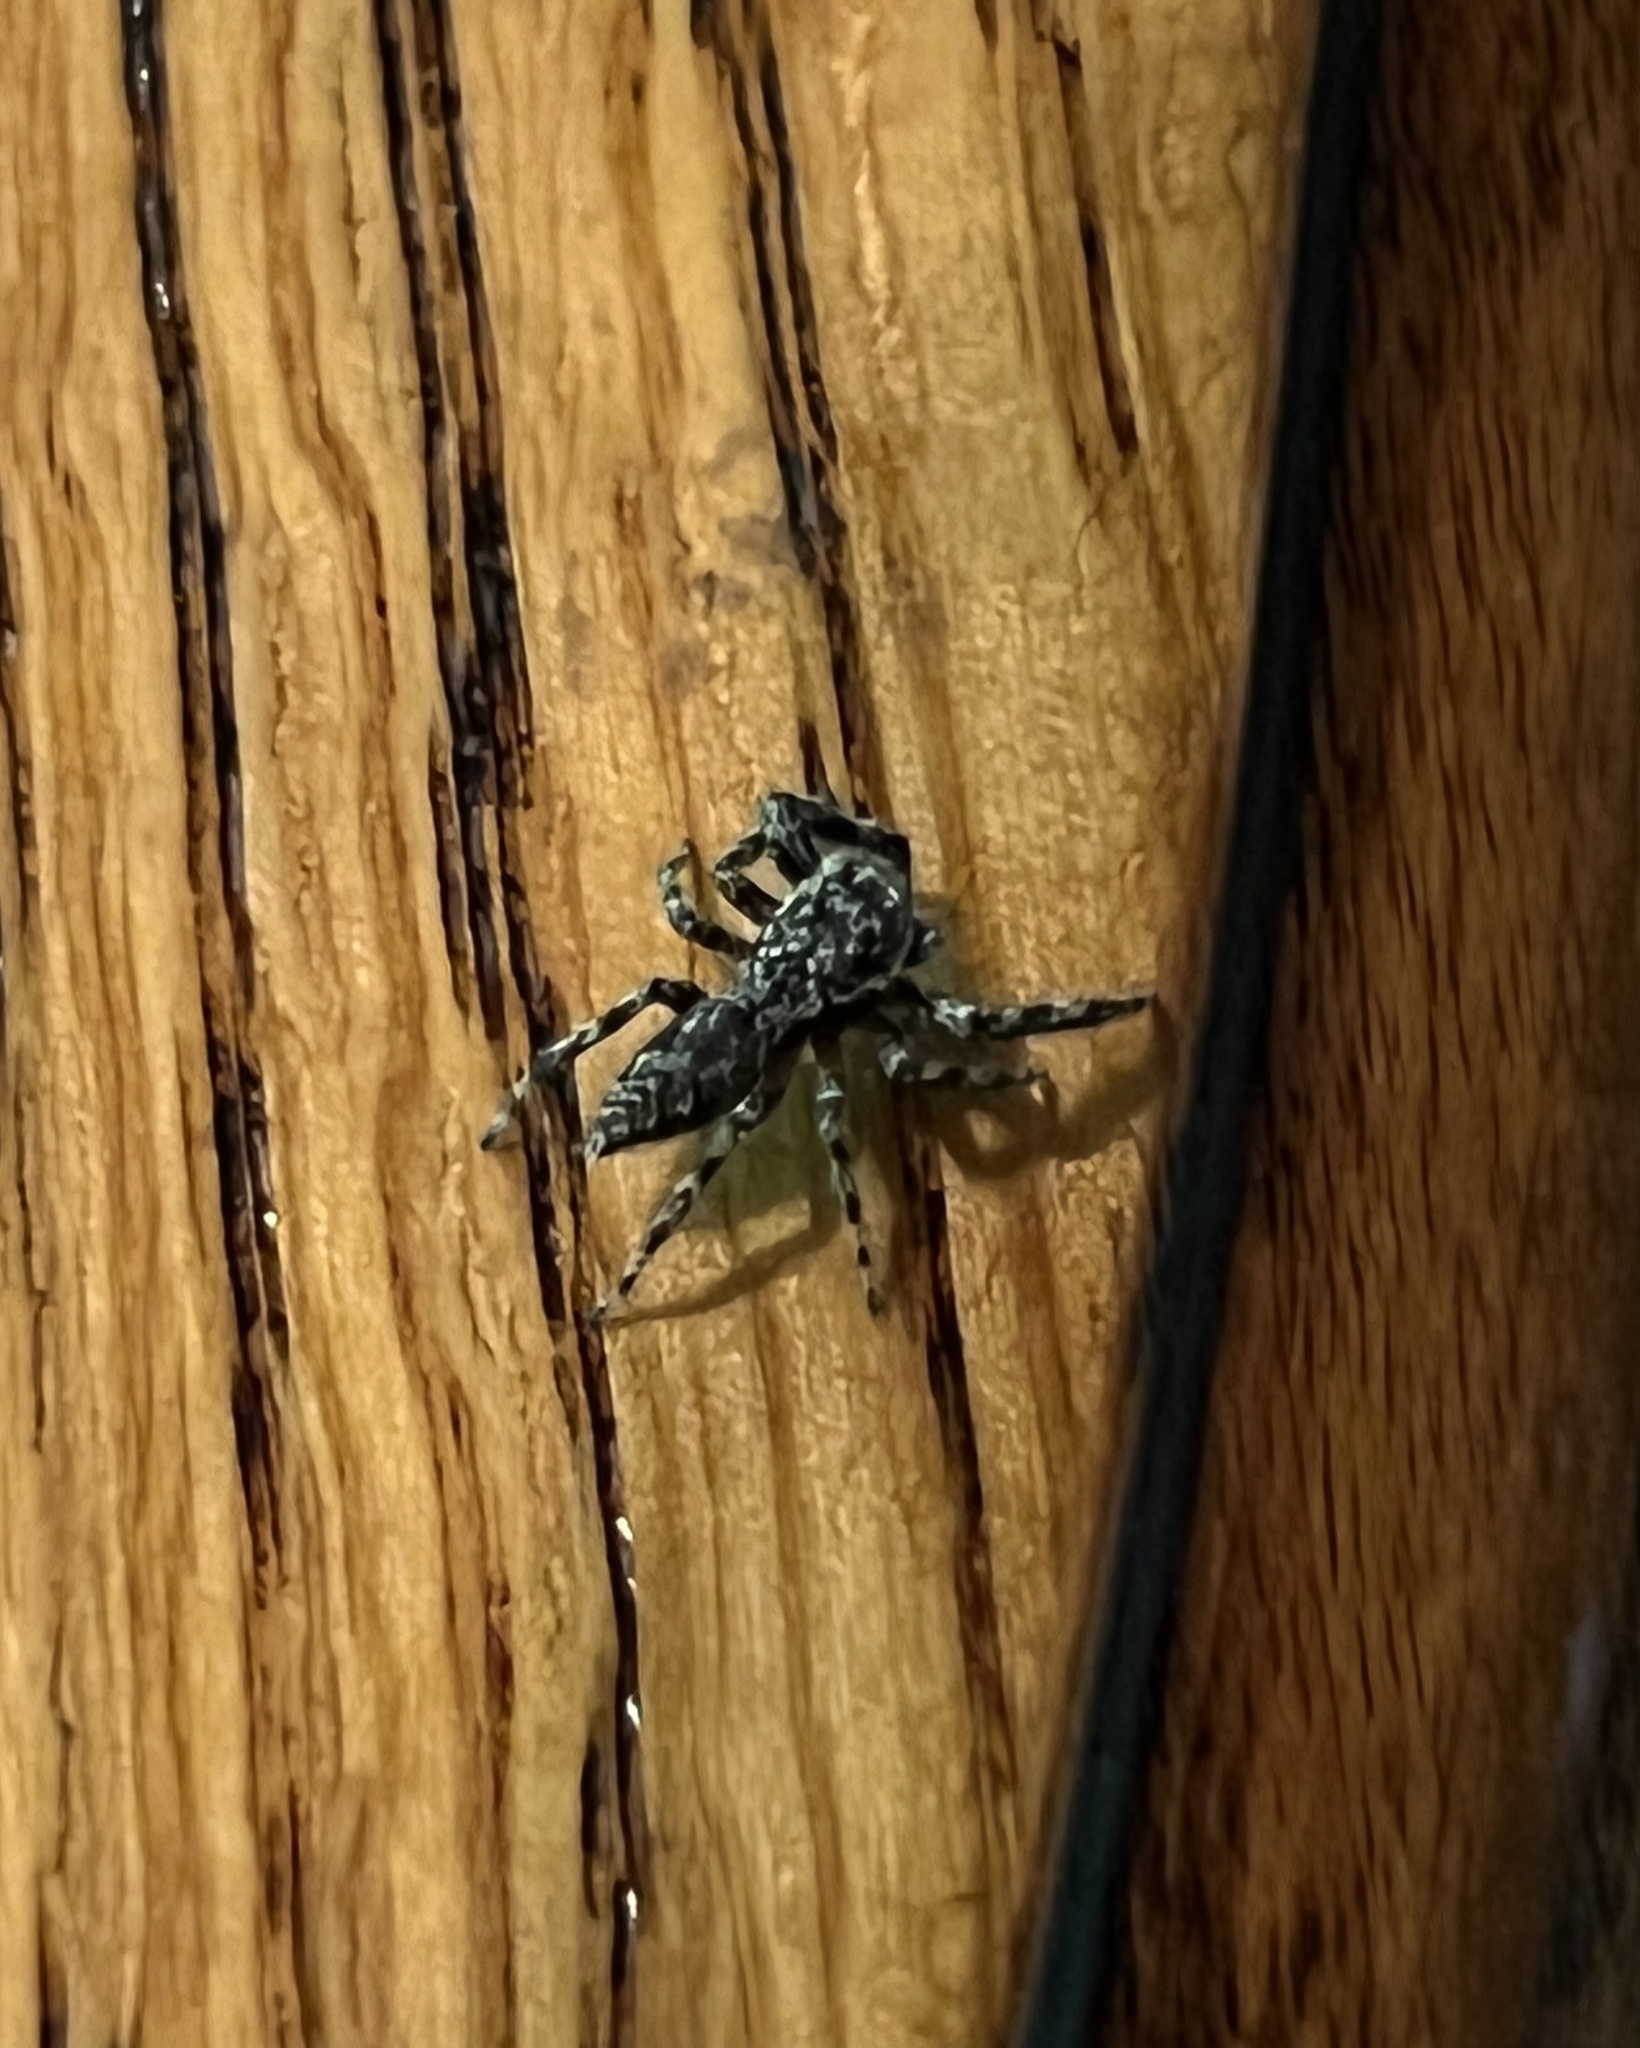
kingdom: Animalia
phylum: Arthropoda
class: Arachnida
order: Araneae
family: Salticidae
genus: Platycryptus
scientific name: Platycryptus undatus
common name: Tan jumping spider
